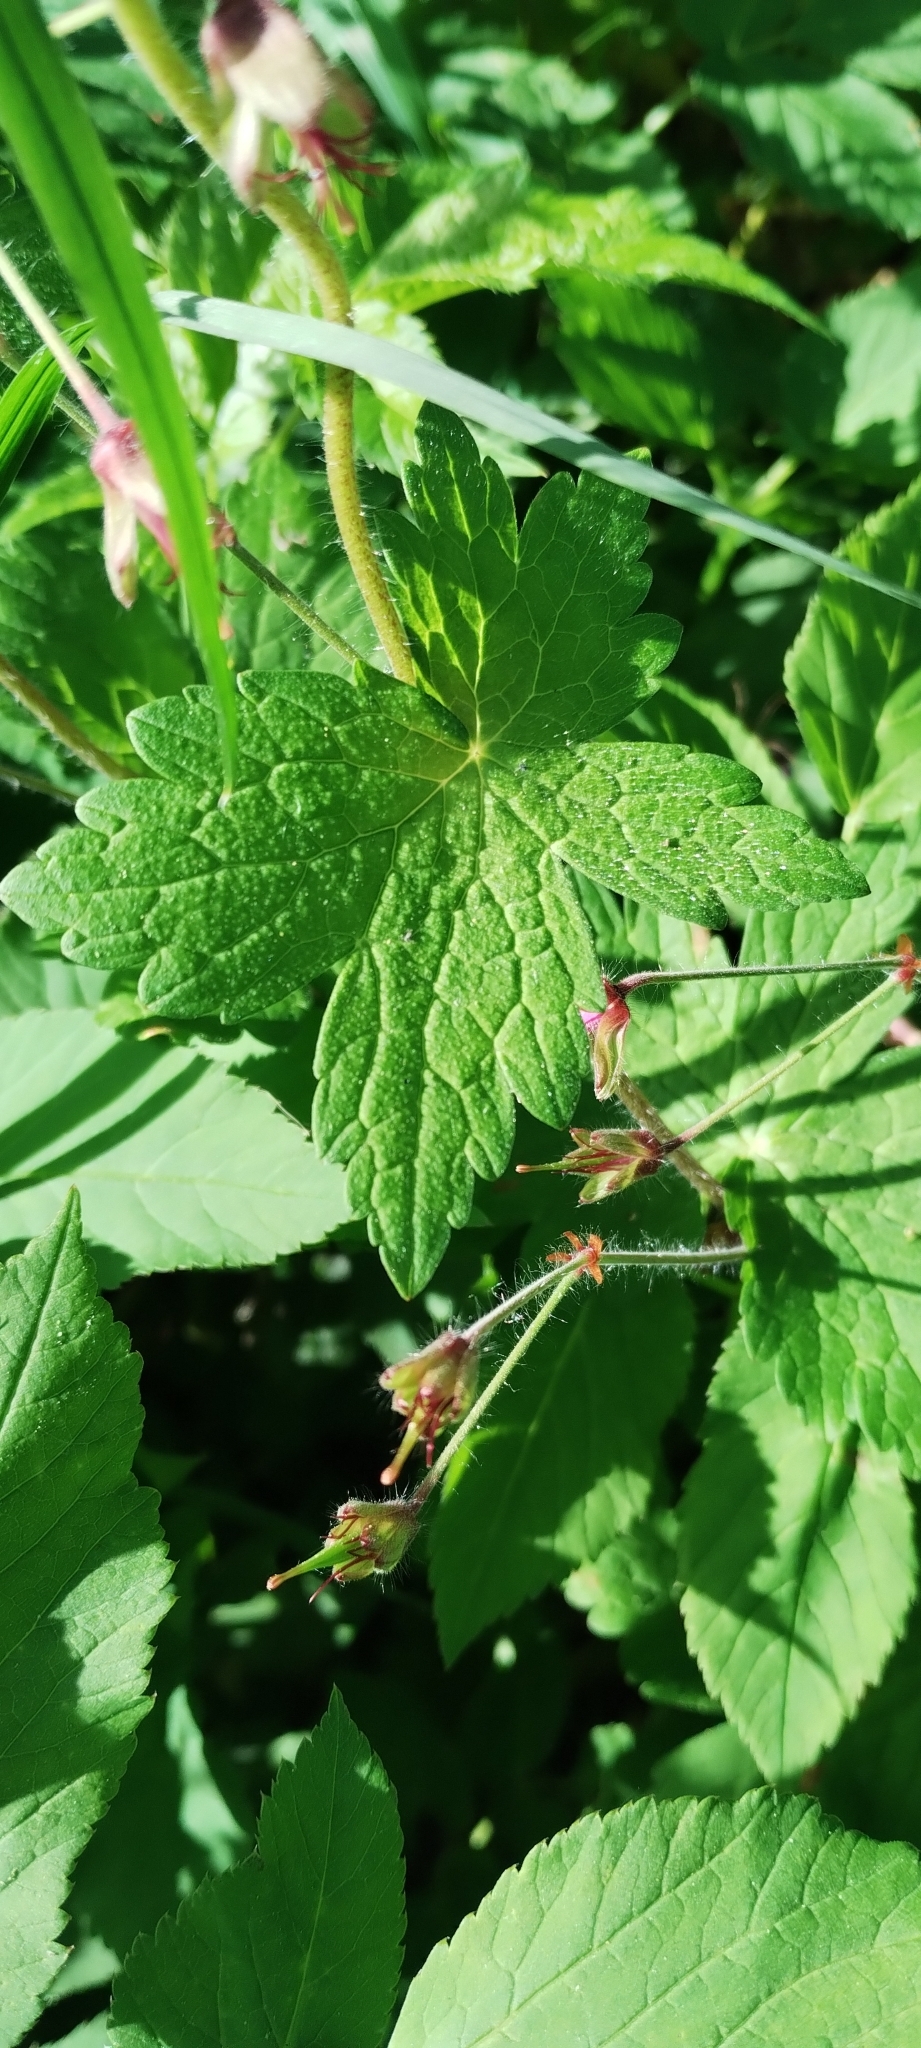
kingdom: Plantae
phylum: Tracheophyta
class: Magnoliopsida
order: Geraniales
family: Geraniaceae
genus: Geranium
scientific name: Geranium phaeum
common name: Dusky crane's-bill
